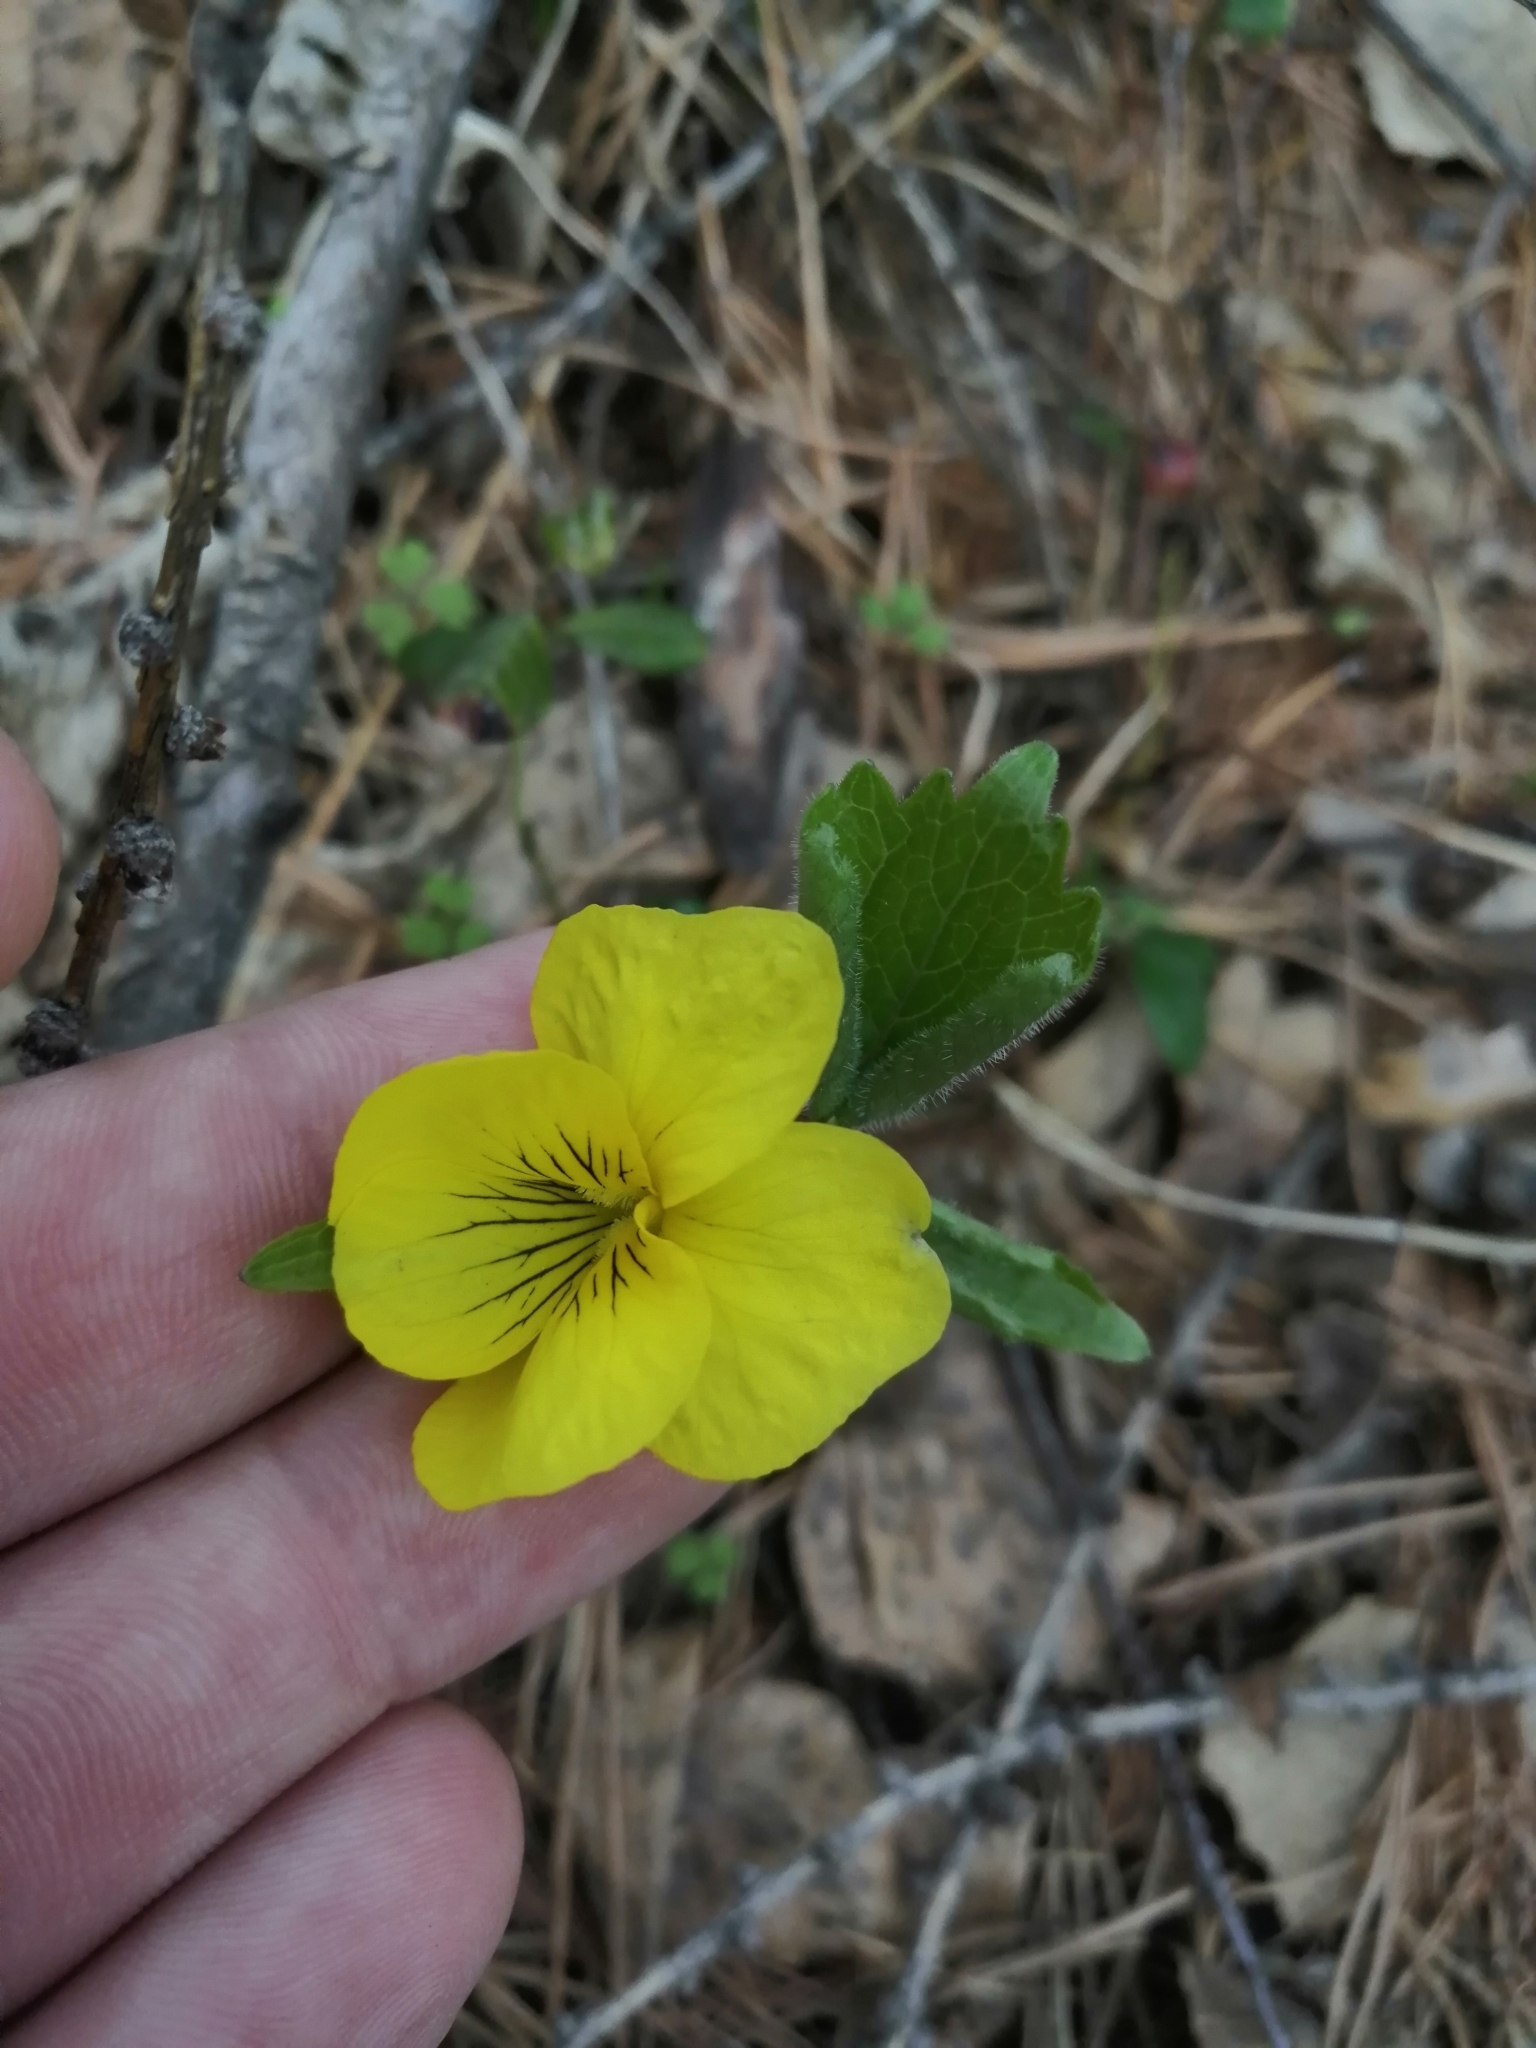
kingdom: Plantae
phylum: Tracheophyta
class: Magnoliopsida
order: Malpighiales
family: Violaceae
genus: Viola
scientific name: Viola uniflora
